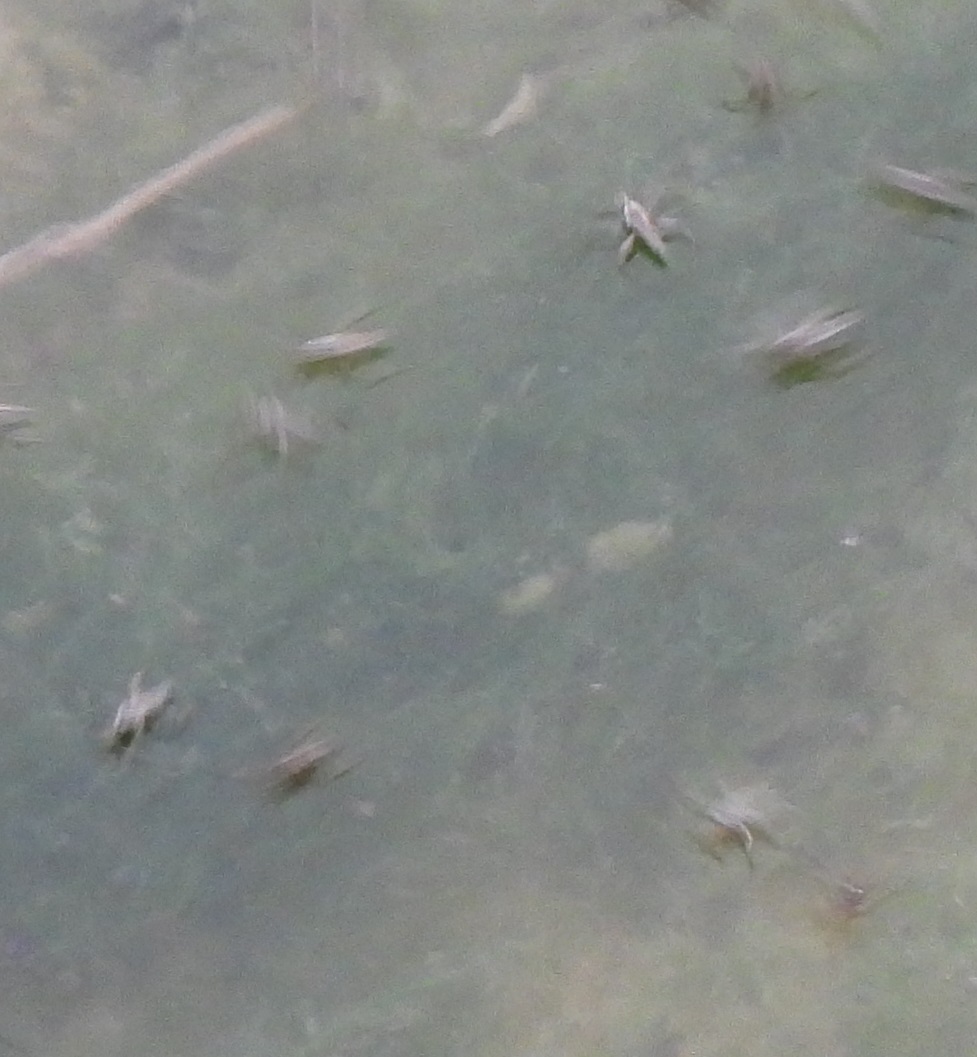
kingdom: Animalia
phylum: Arthropoda
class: Insecta
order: Hemiptera
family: Veliidae
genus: Rhagovelia
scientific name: Rhagovelia
